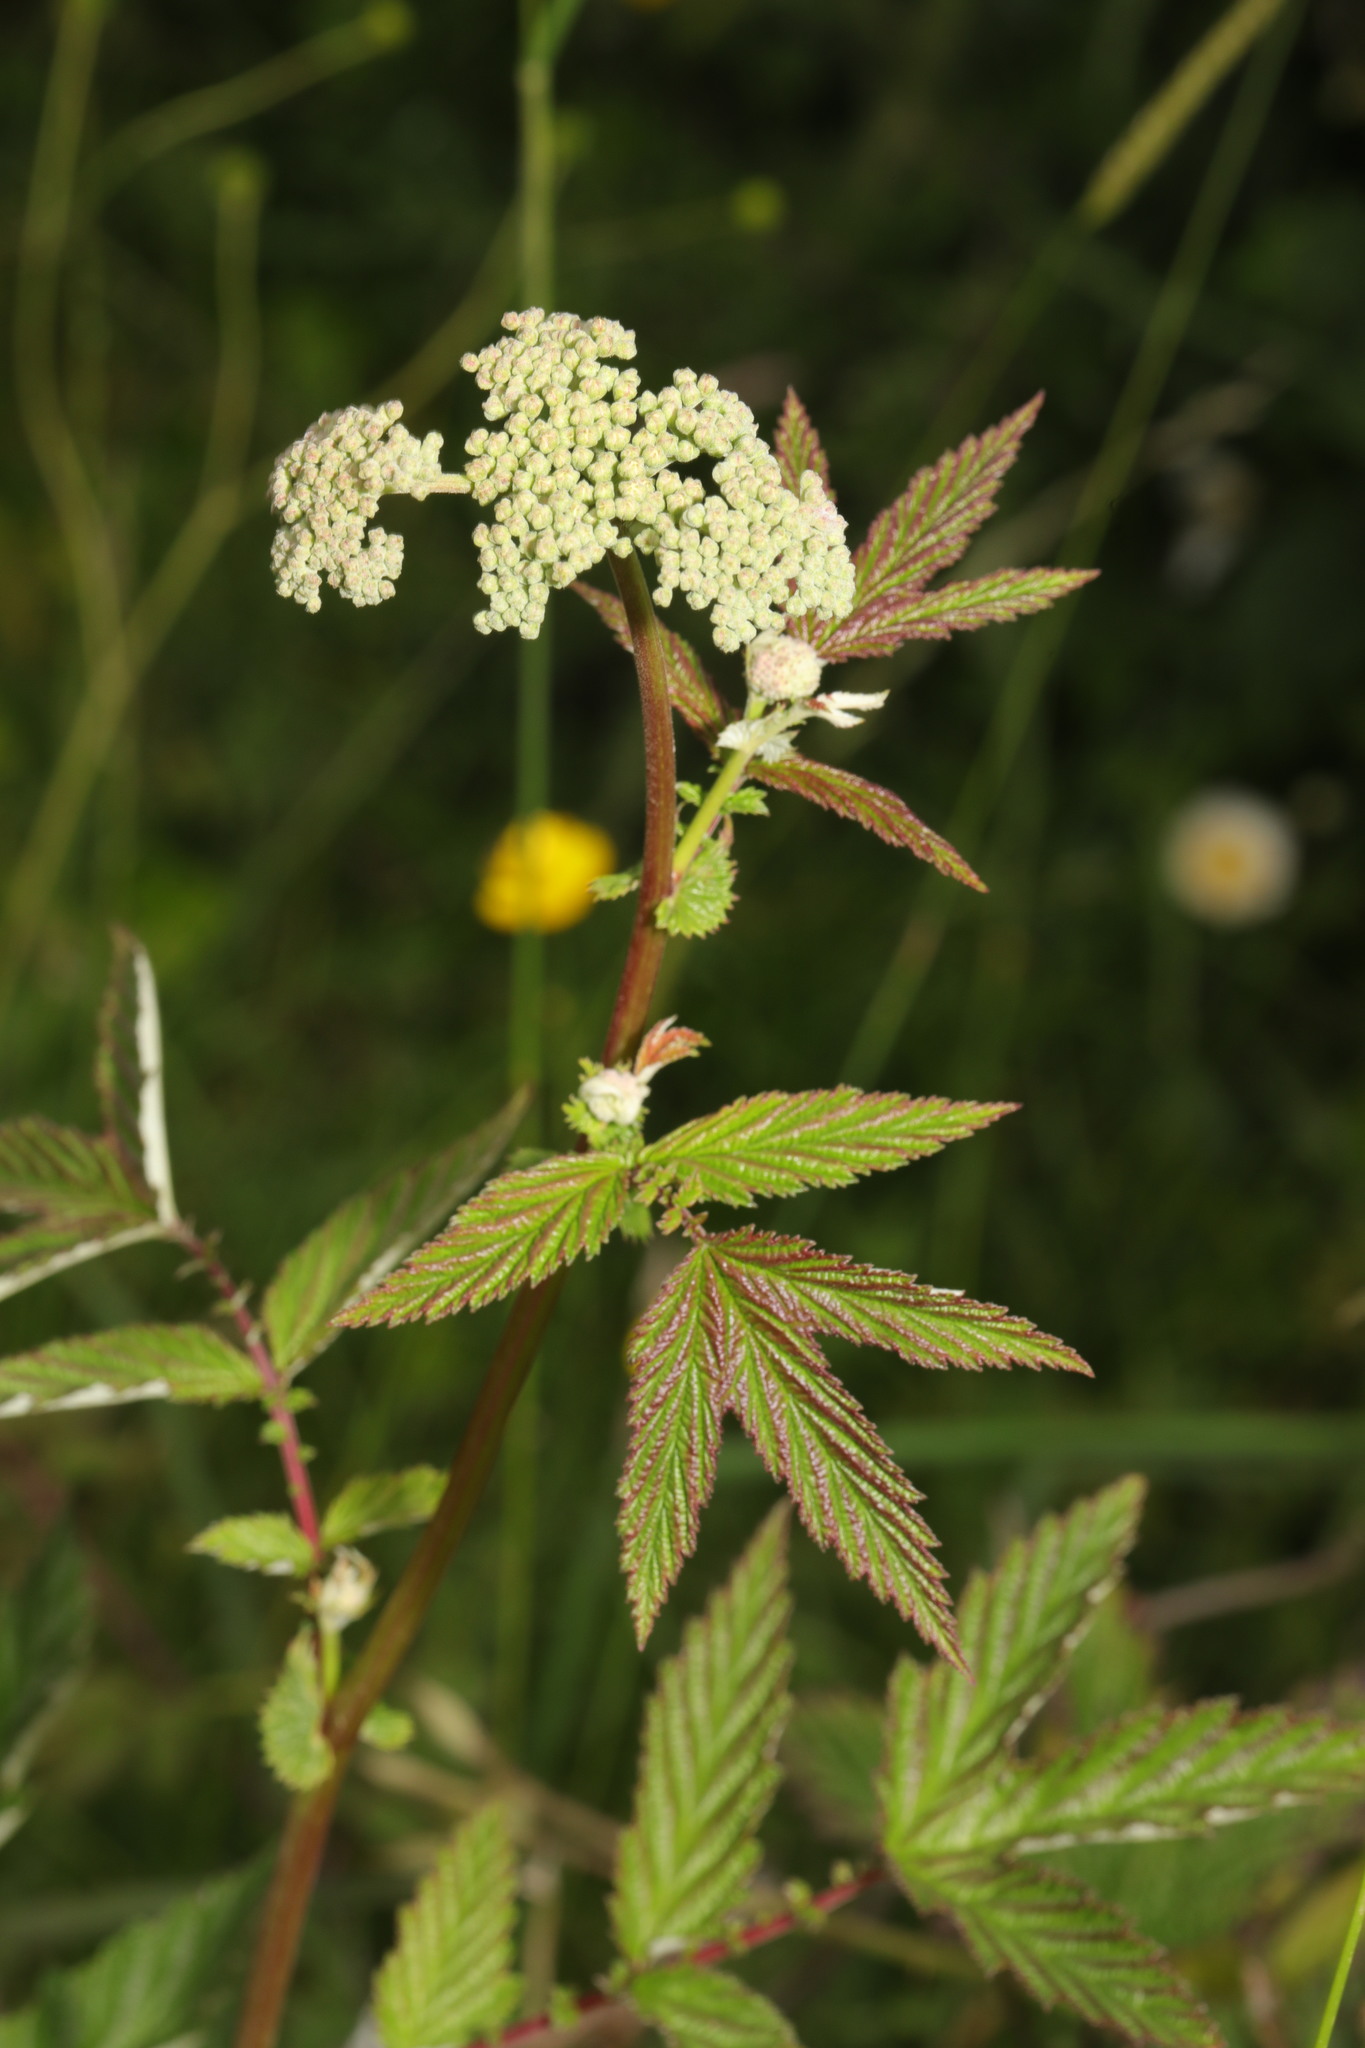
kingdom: Plantae
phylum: Tracheophyta
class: Magnoliopsida
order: Rosales
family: Rosaceae
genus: Filipendula
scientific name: Filipendula ulmaria
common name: Meadowsweet
